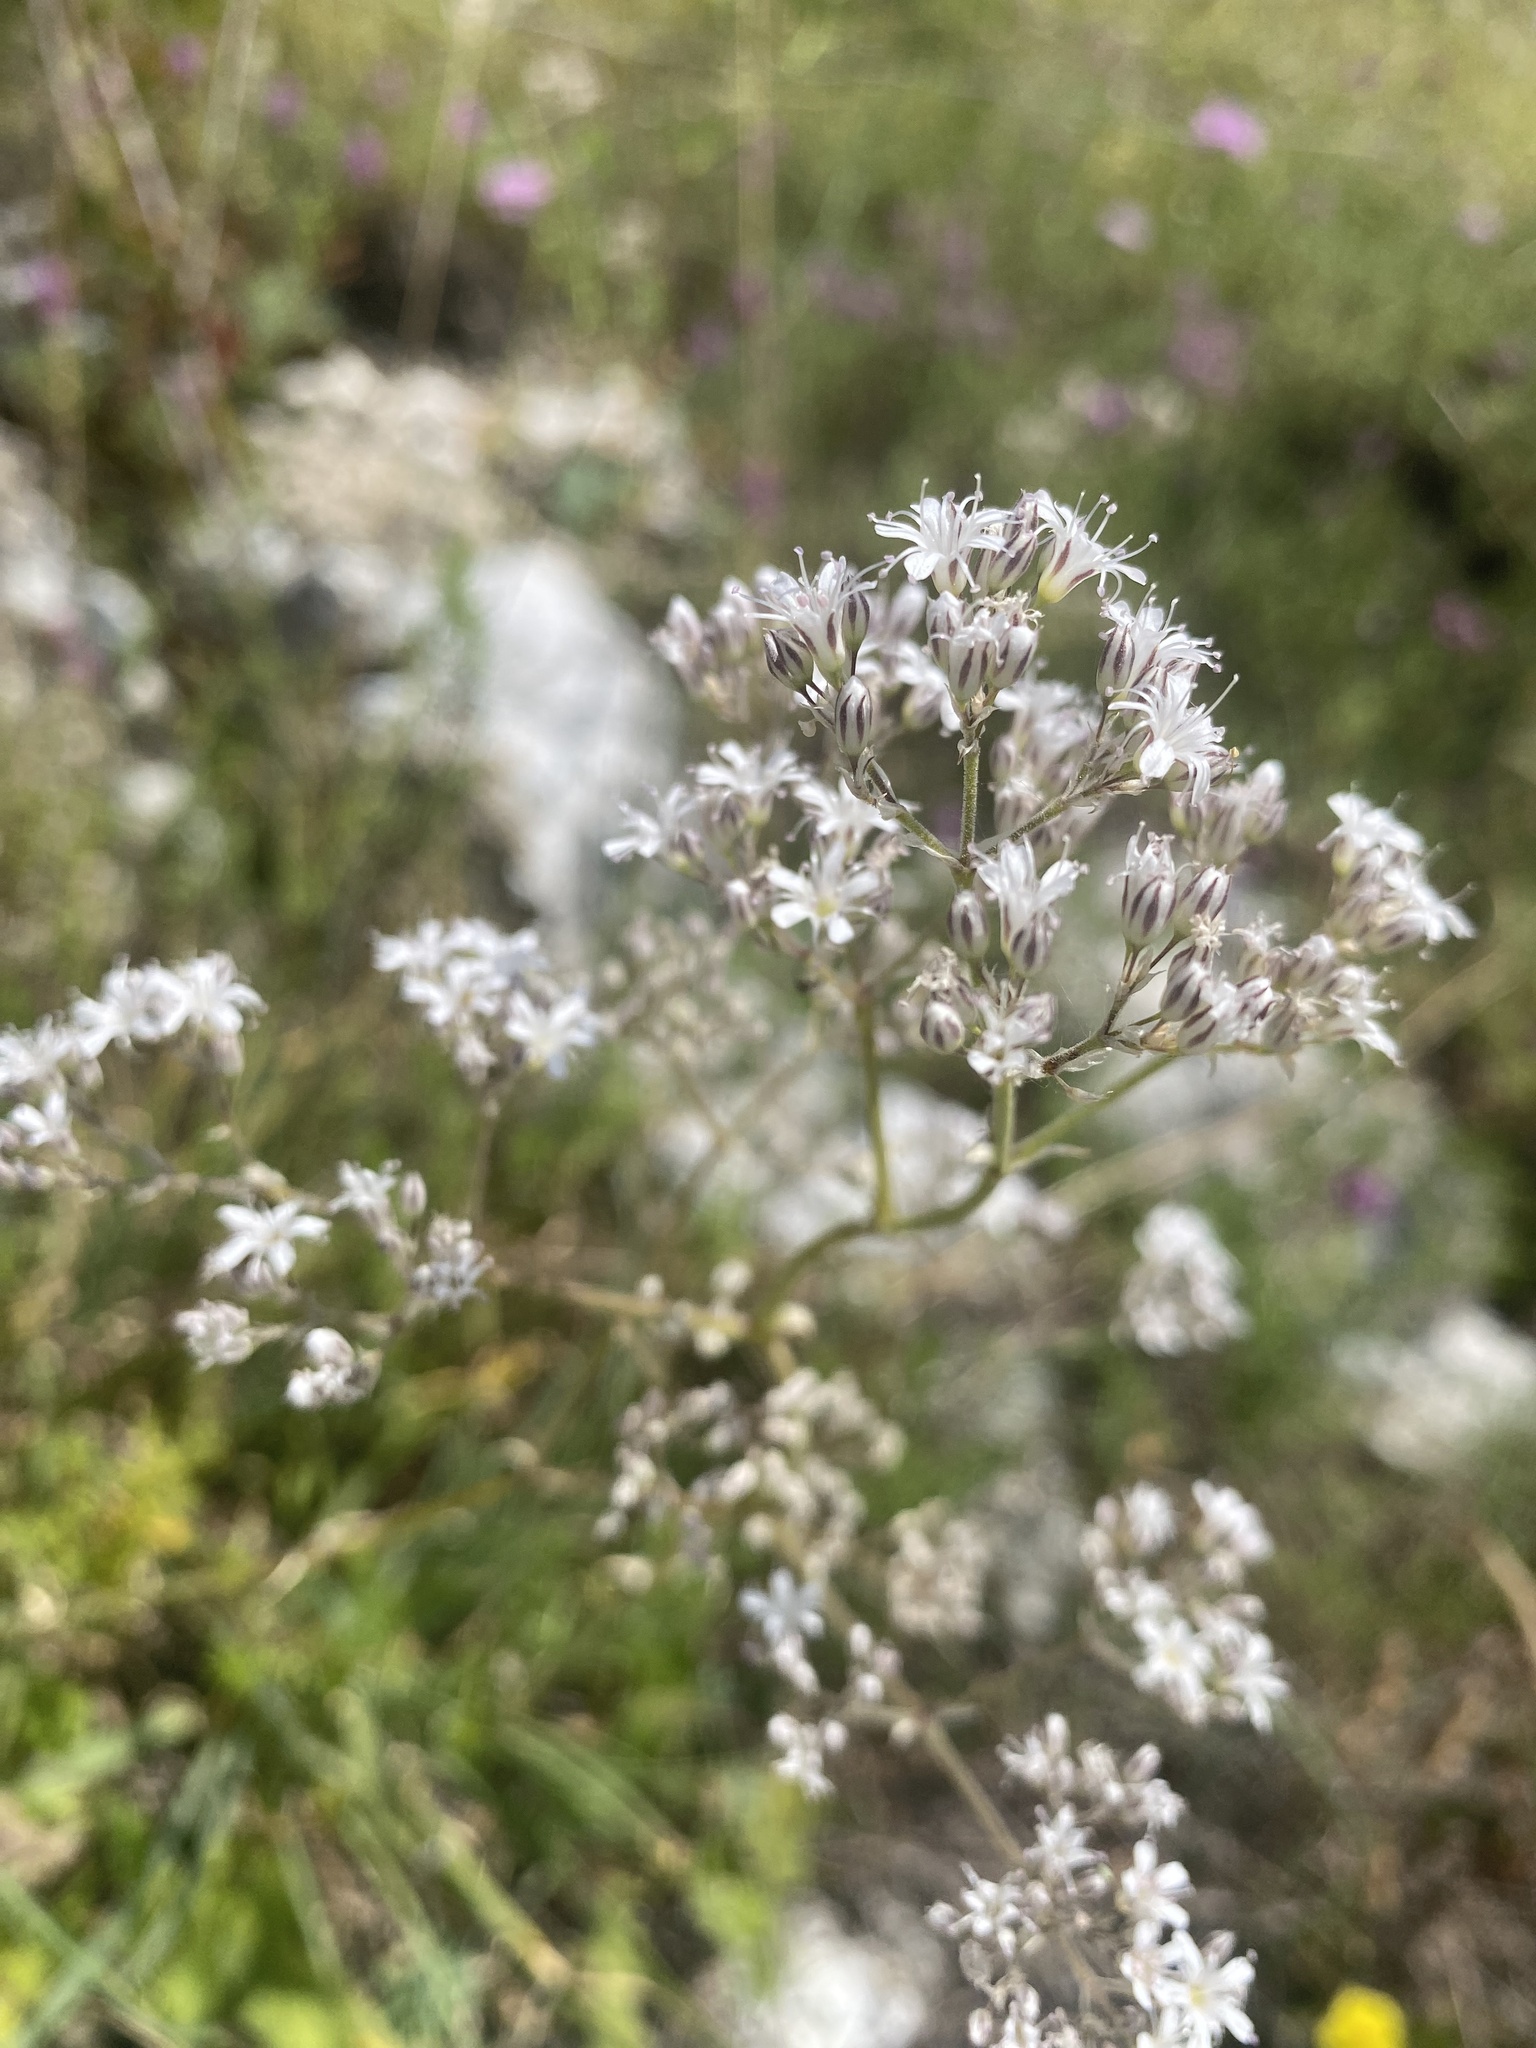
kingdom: Plantae
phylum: Tracheophyta
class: Magnoliopsida
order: Caryophyllales
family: Caryophyllaceae
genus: Gypsophila
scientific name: Gypsophila acutifolia
